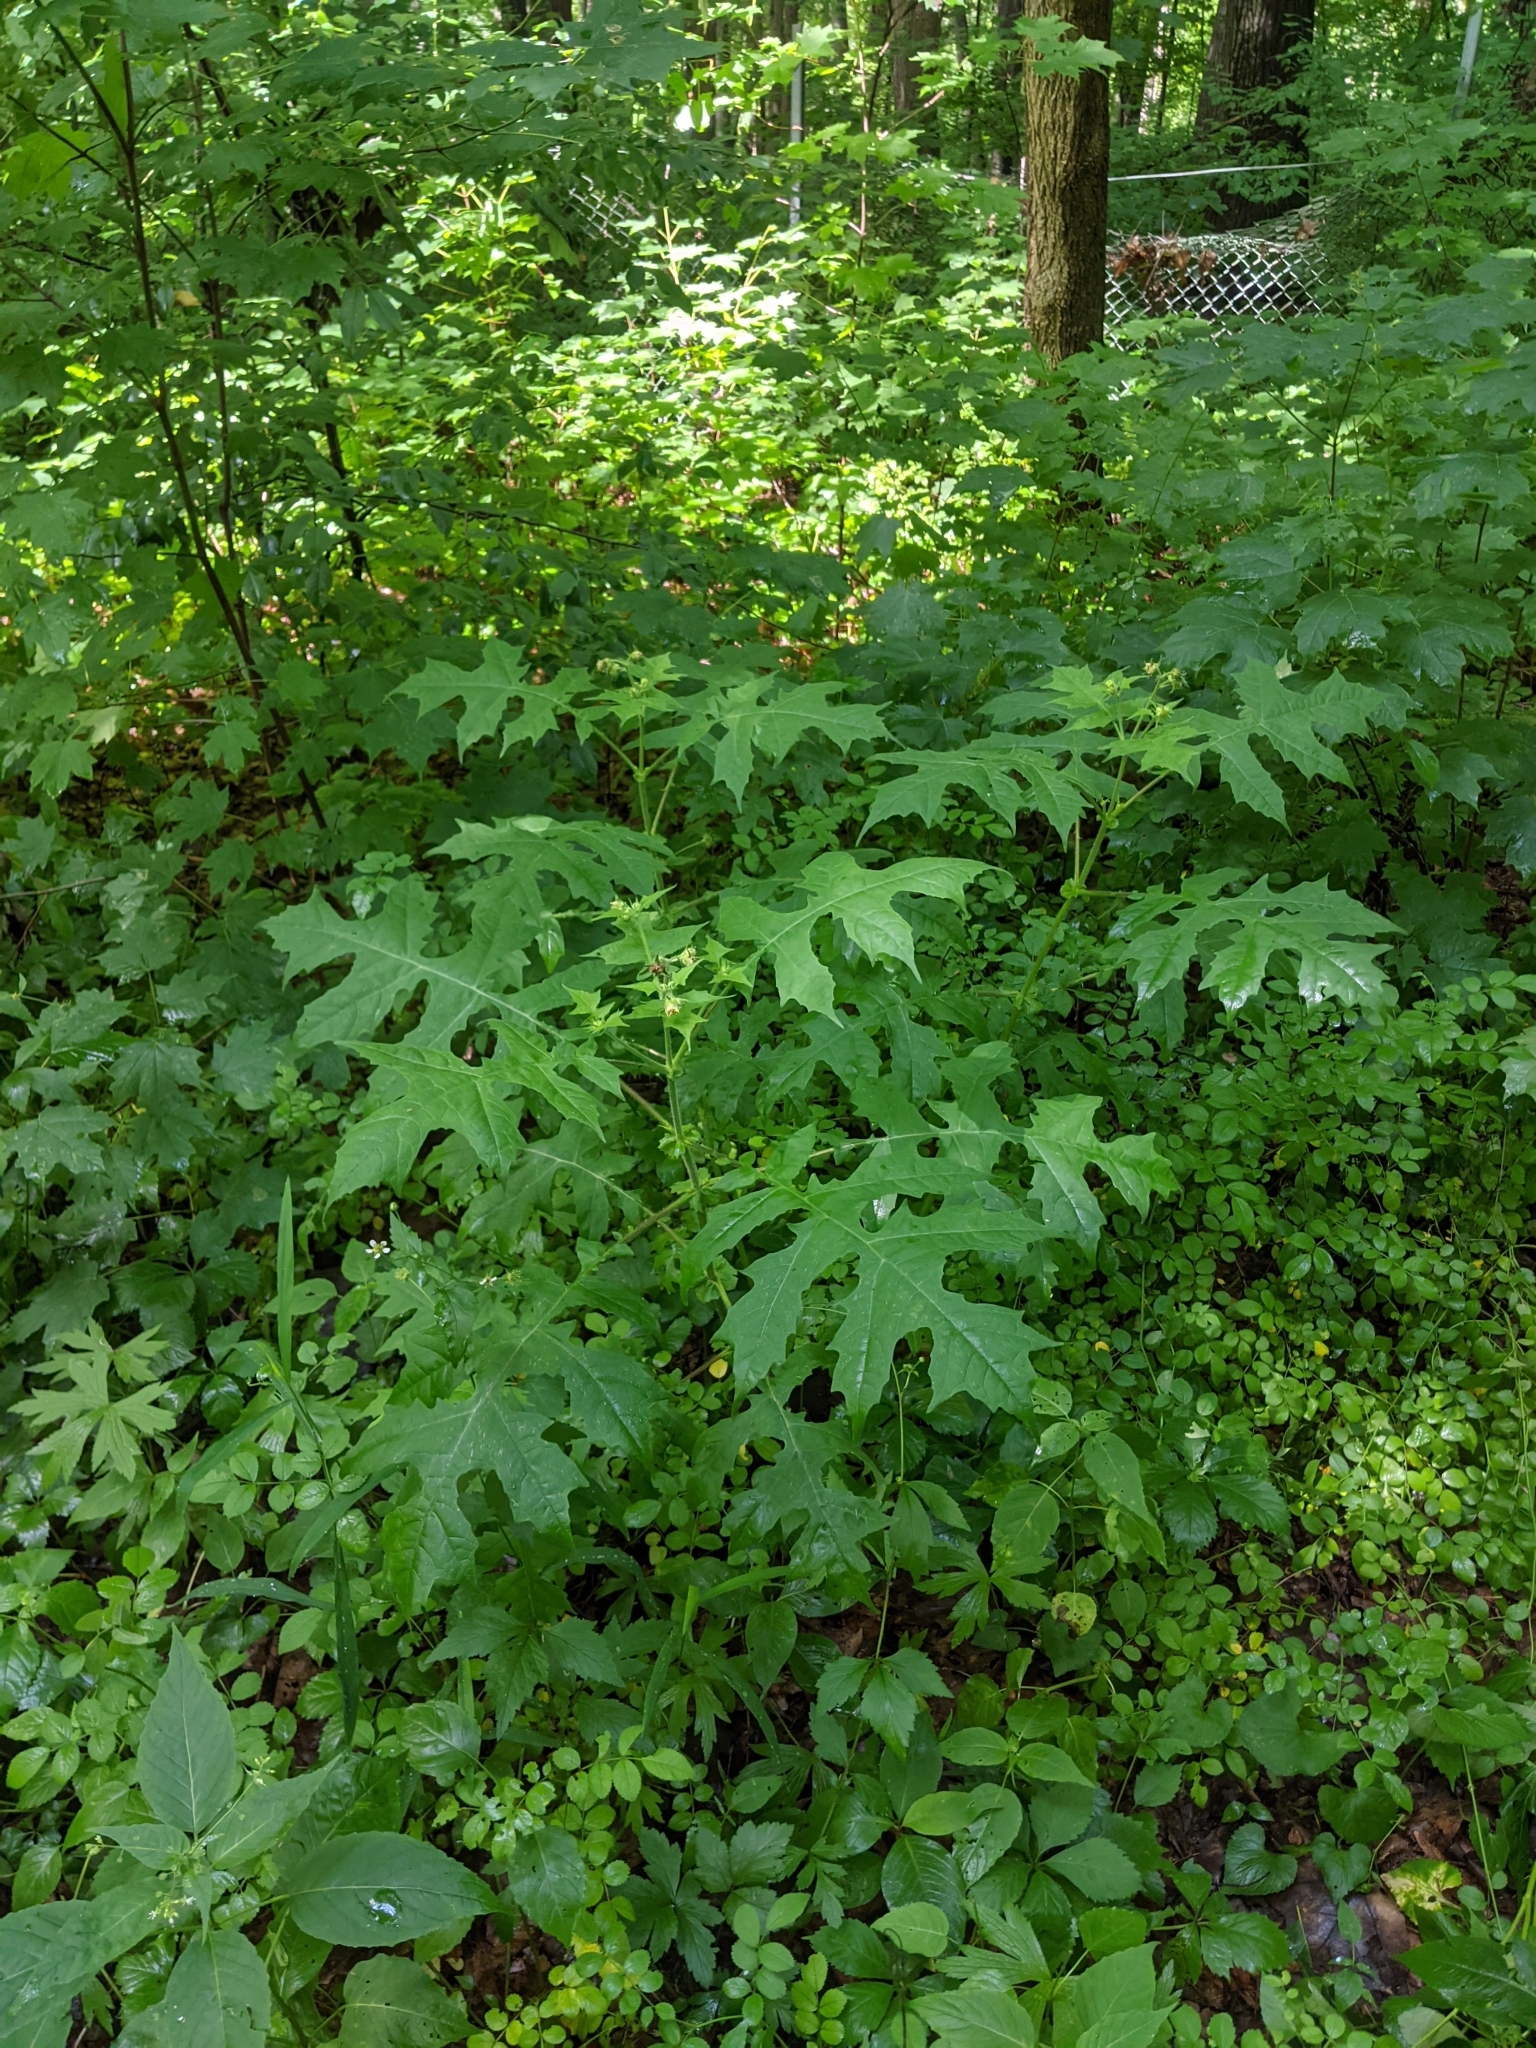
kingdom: Plantae
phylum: Tracheophyta
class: Magnoliopsida
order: Asterales
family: Asteraceae
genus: Polymnia
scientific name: Polymnia canadensis
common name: Pale-flowered leafcup
